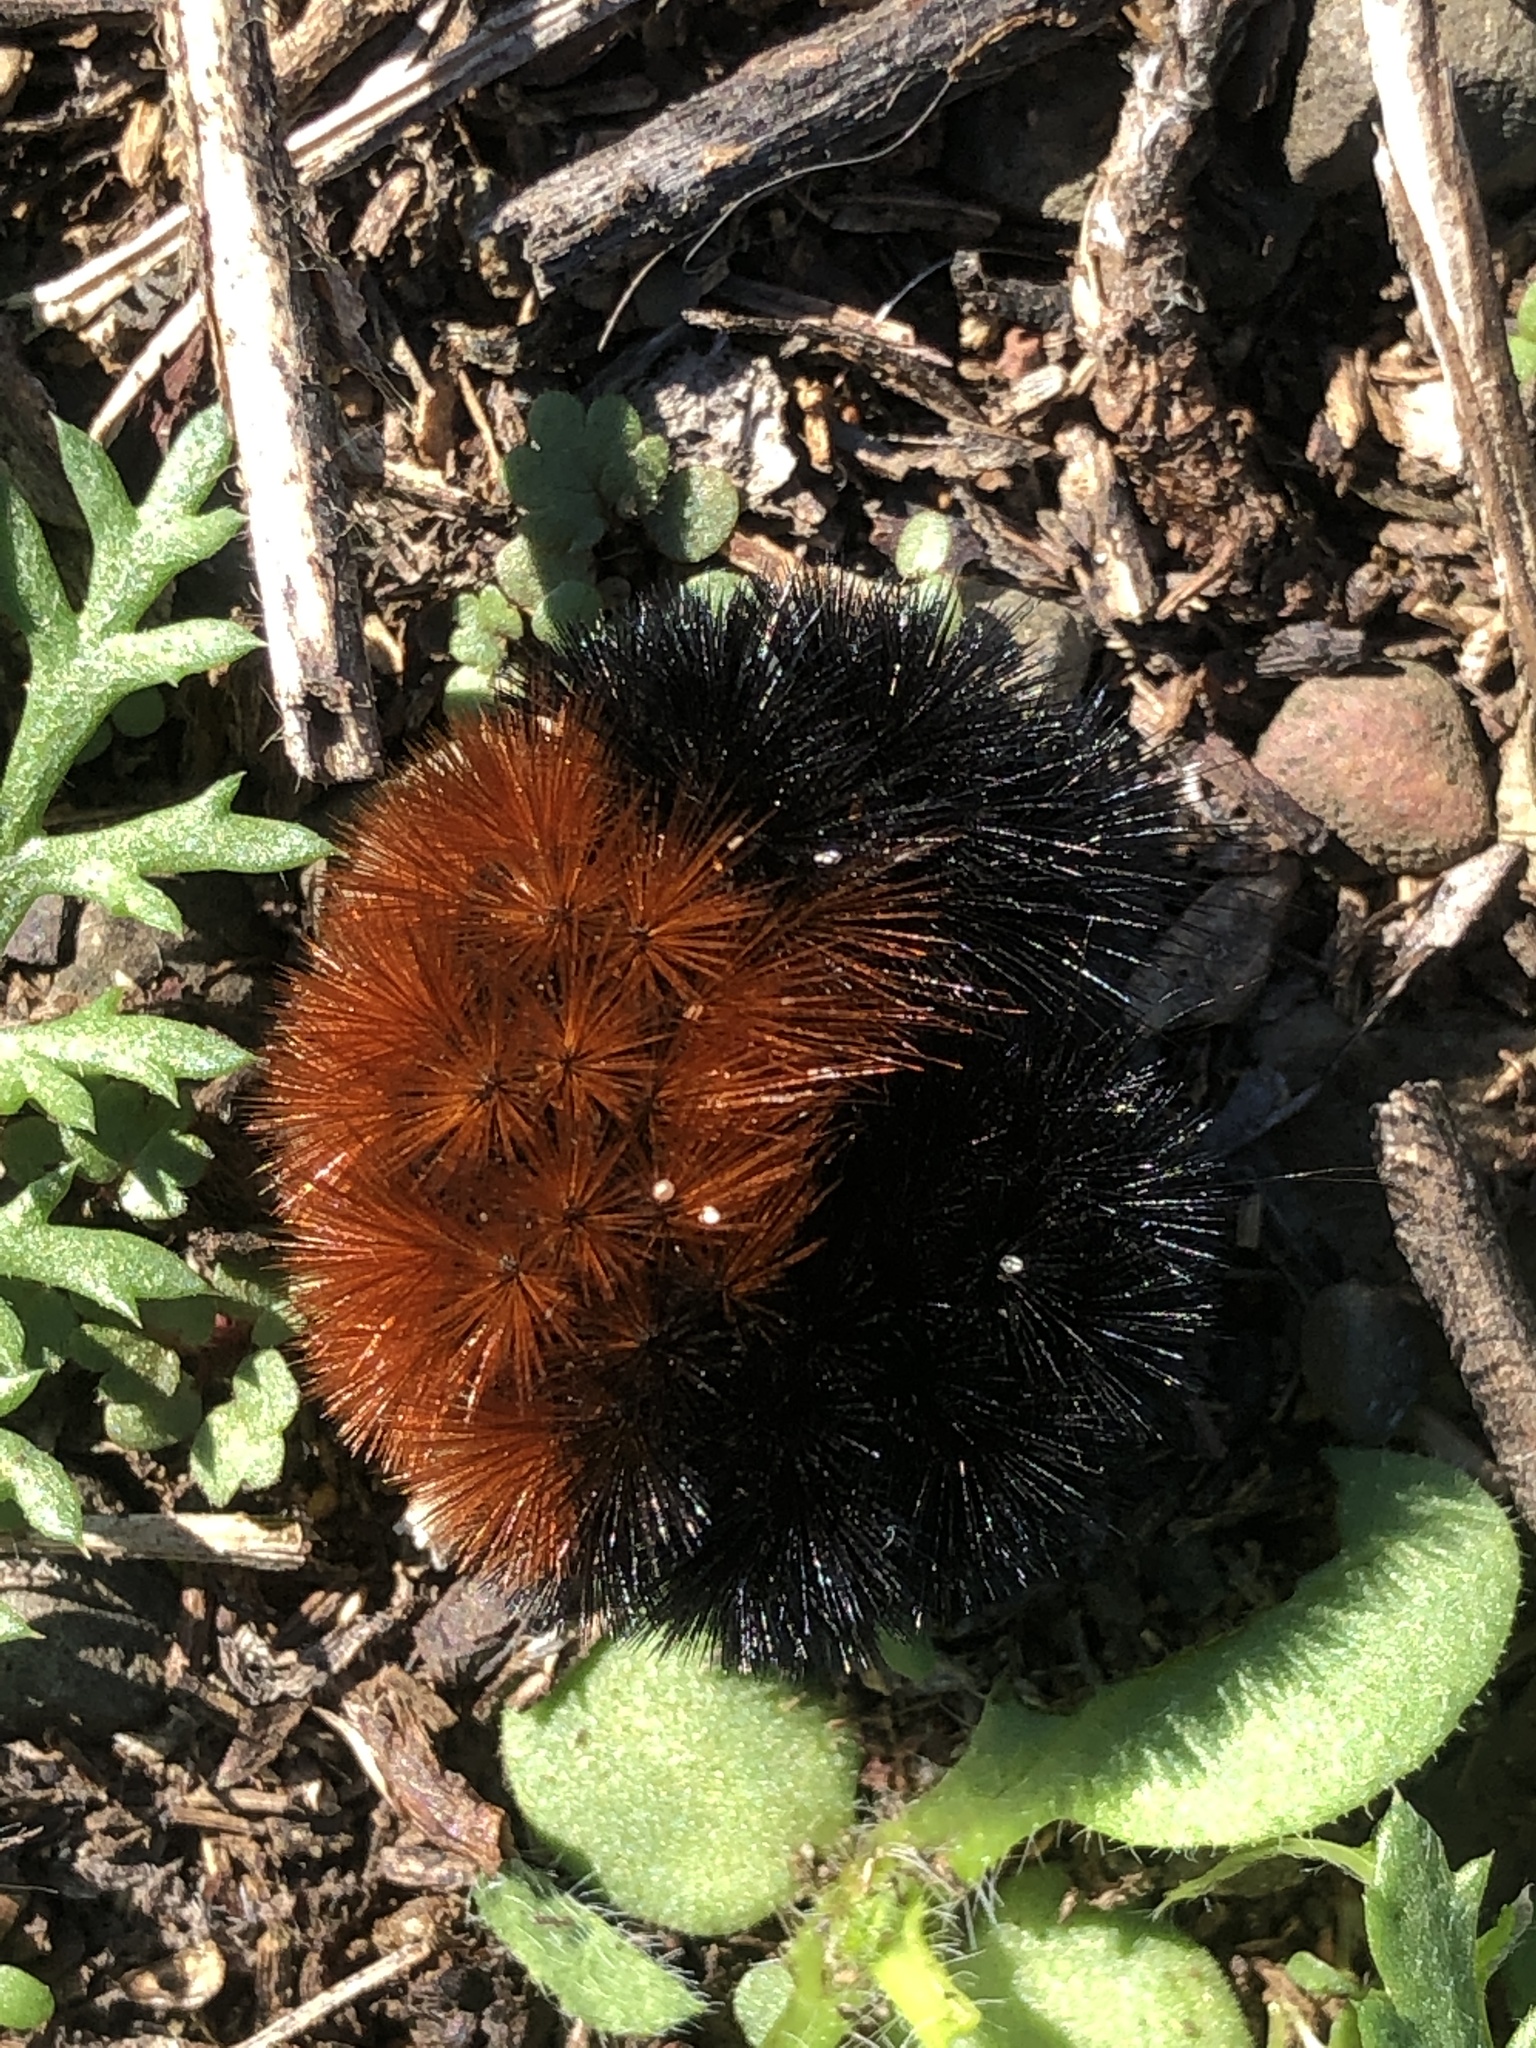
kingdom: Animalia
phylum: Arthropoda
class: Insecta
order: Lepidoptera
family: Erebidae
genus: Pyrrharctia
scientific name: Pyrrharctia isabella
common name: Isabella tiger moth
